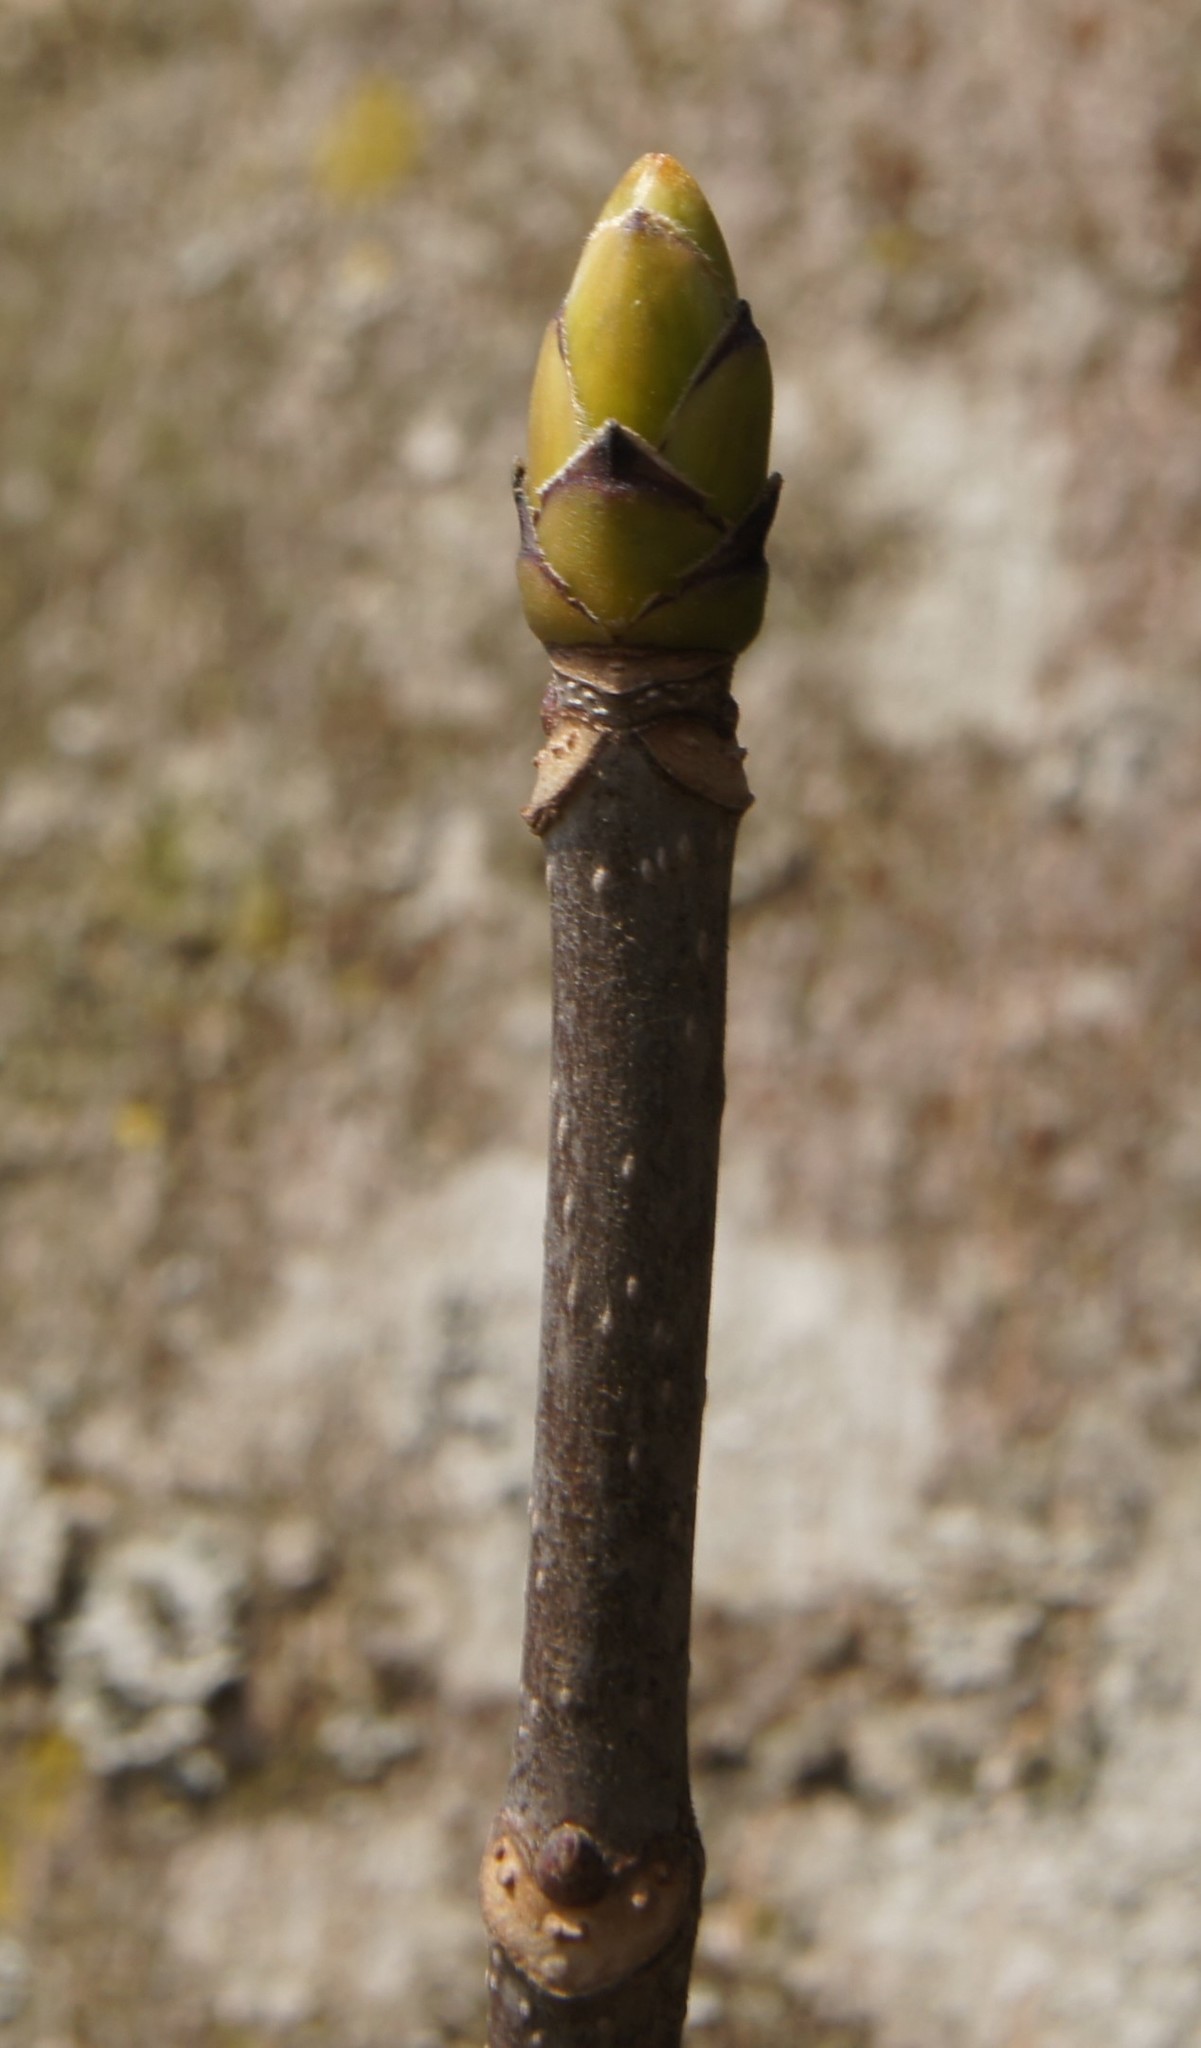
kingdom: Plantae
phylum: Tracheophyta
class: Magnoliopsida
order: Sapindales
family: Sapindaceae
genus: Acer
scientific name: Acer pseudoplatanus
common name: Sycamore
